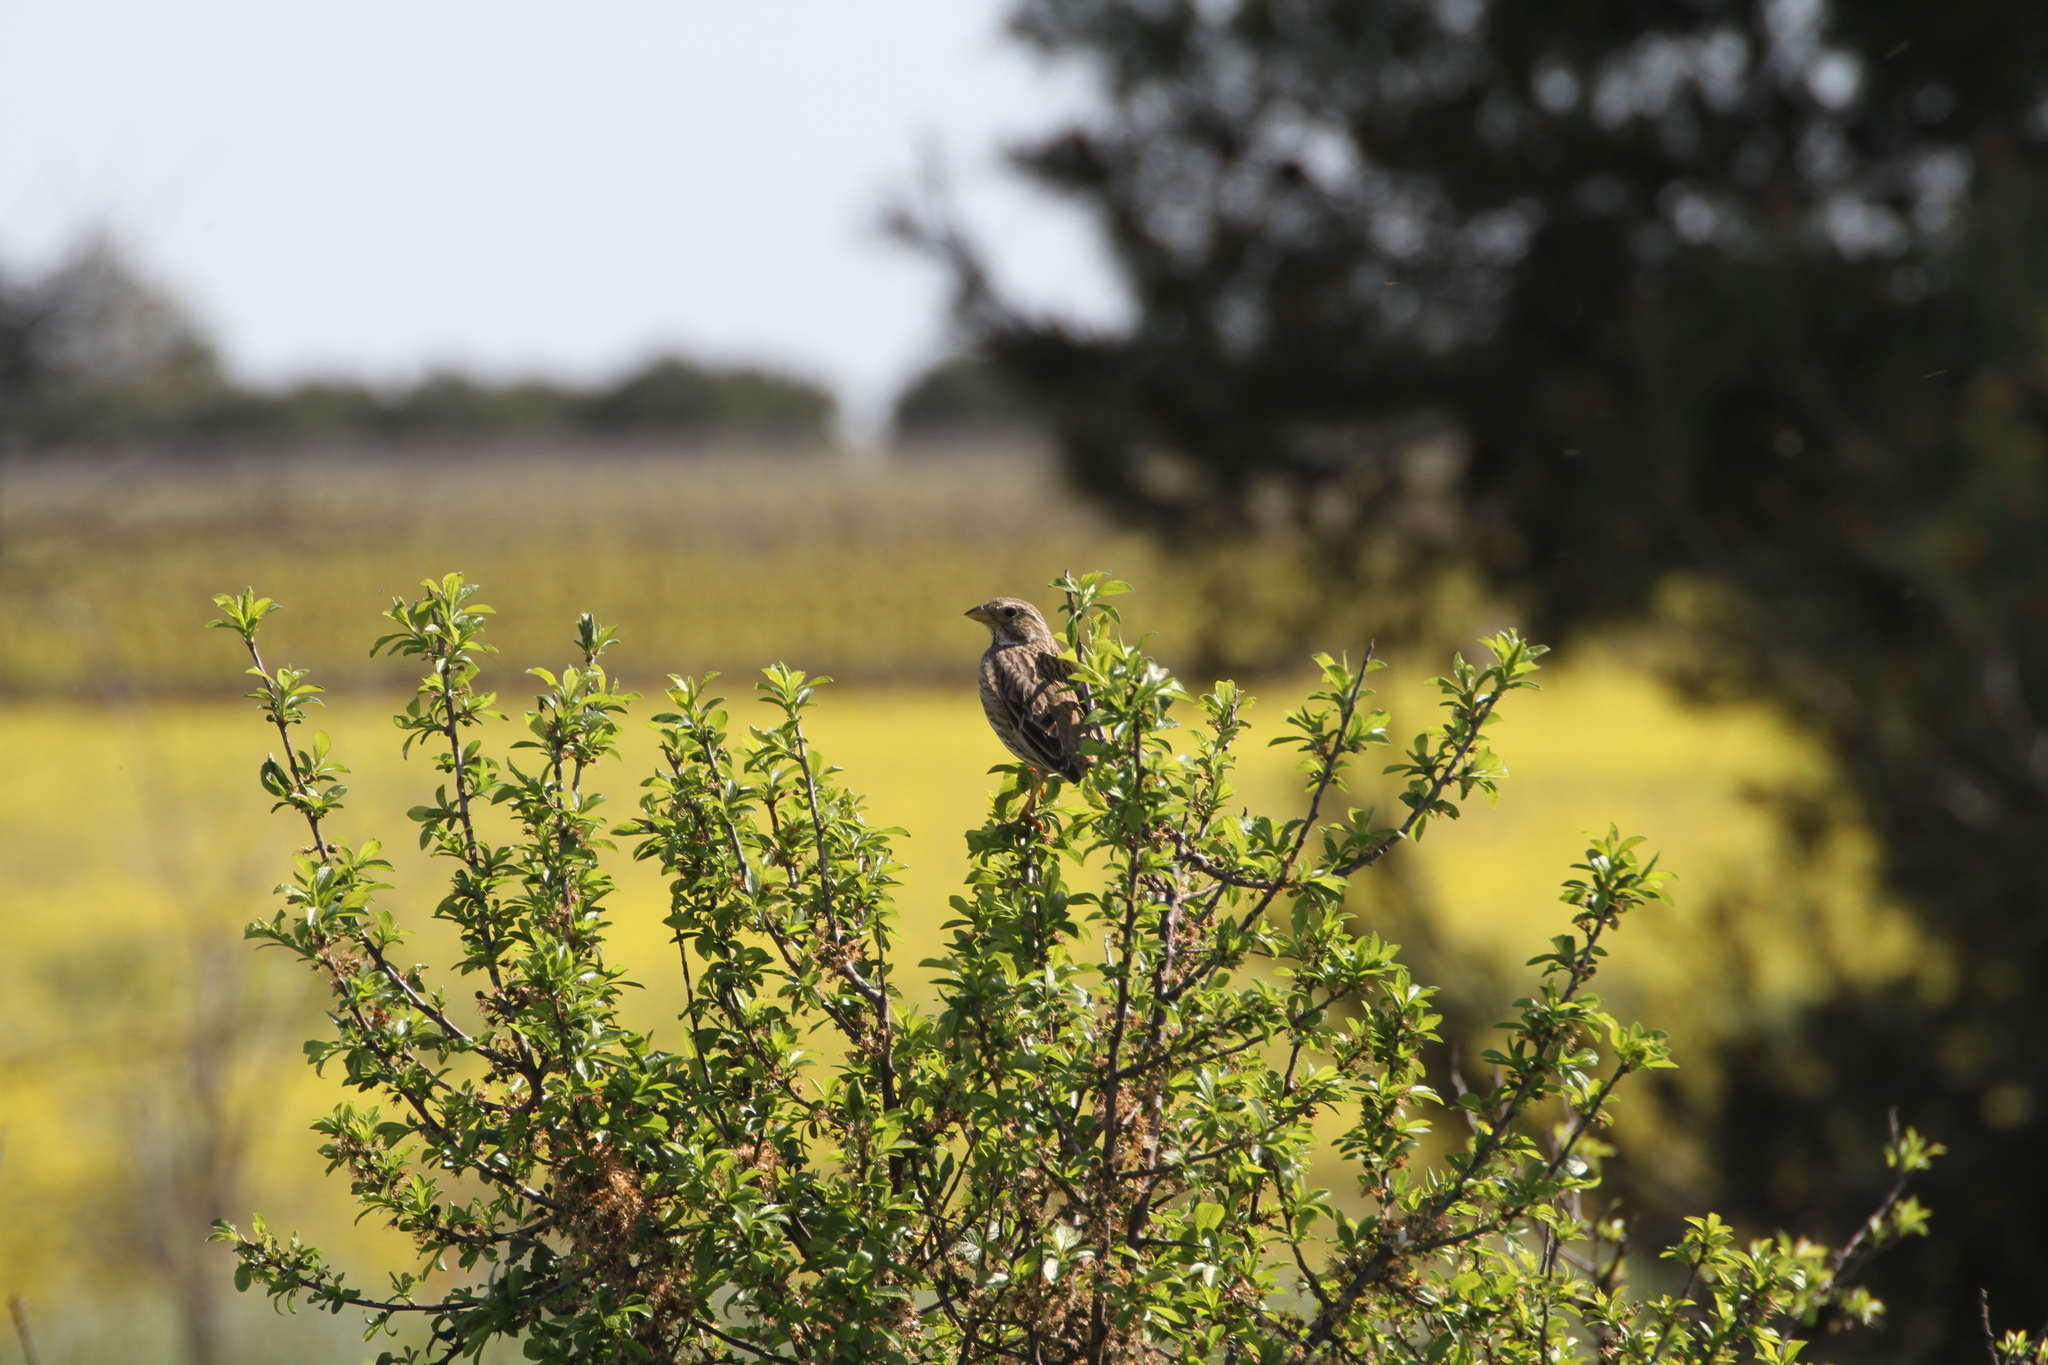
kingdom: Animalia
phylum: Chordata
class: Aves
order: Passeriformes
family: Emberizidae
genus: Emberiza
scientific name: Emberiza calandra
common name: Corn bunting
